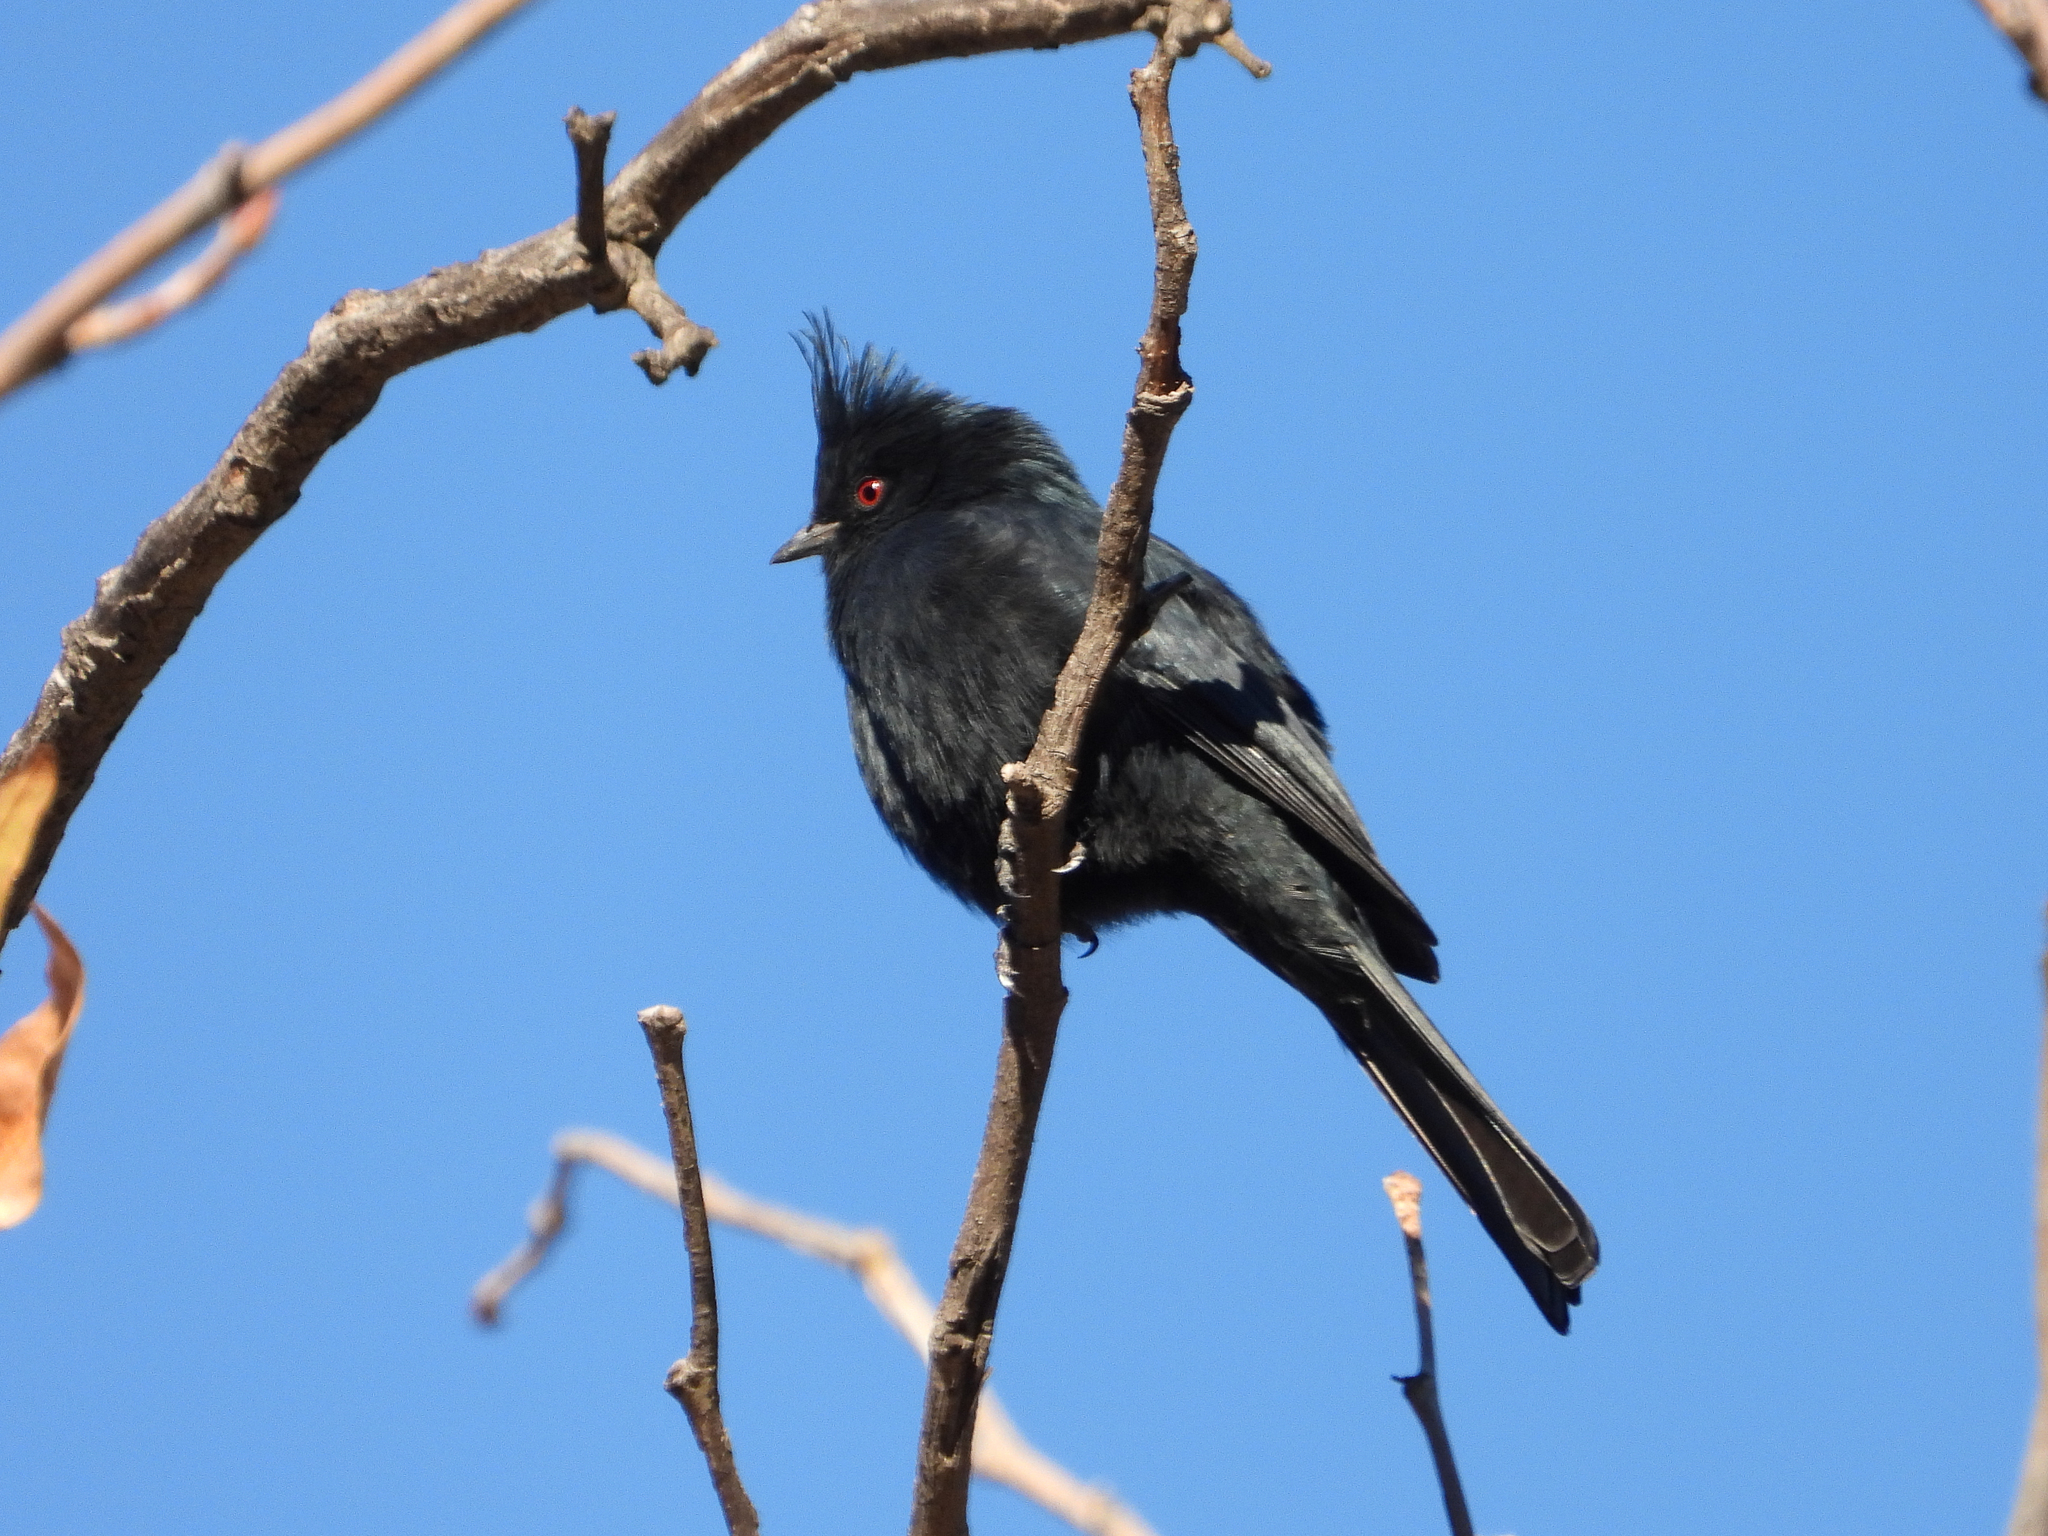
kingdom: Animalia
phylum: Chordata
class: Aves
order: Passeriformes
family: Ptilogonatidae
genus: Phainopepla
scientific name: Phainopepla nitens
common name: Phainopepla
